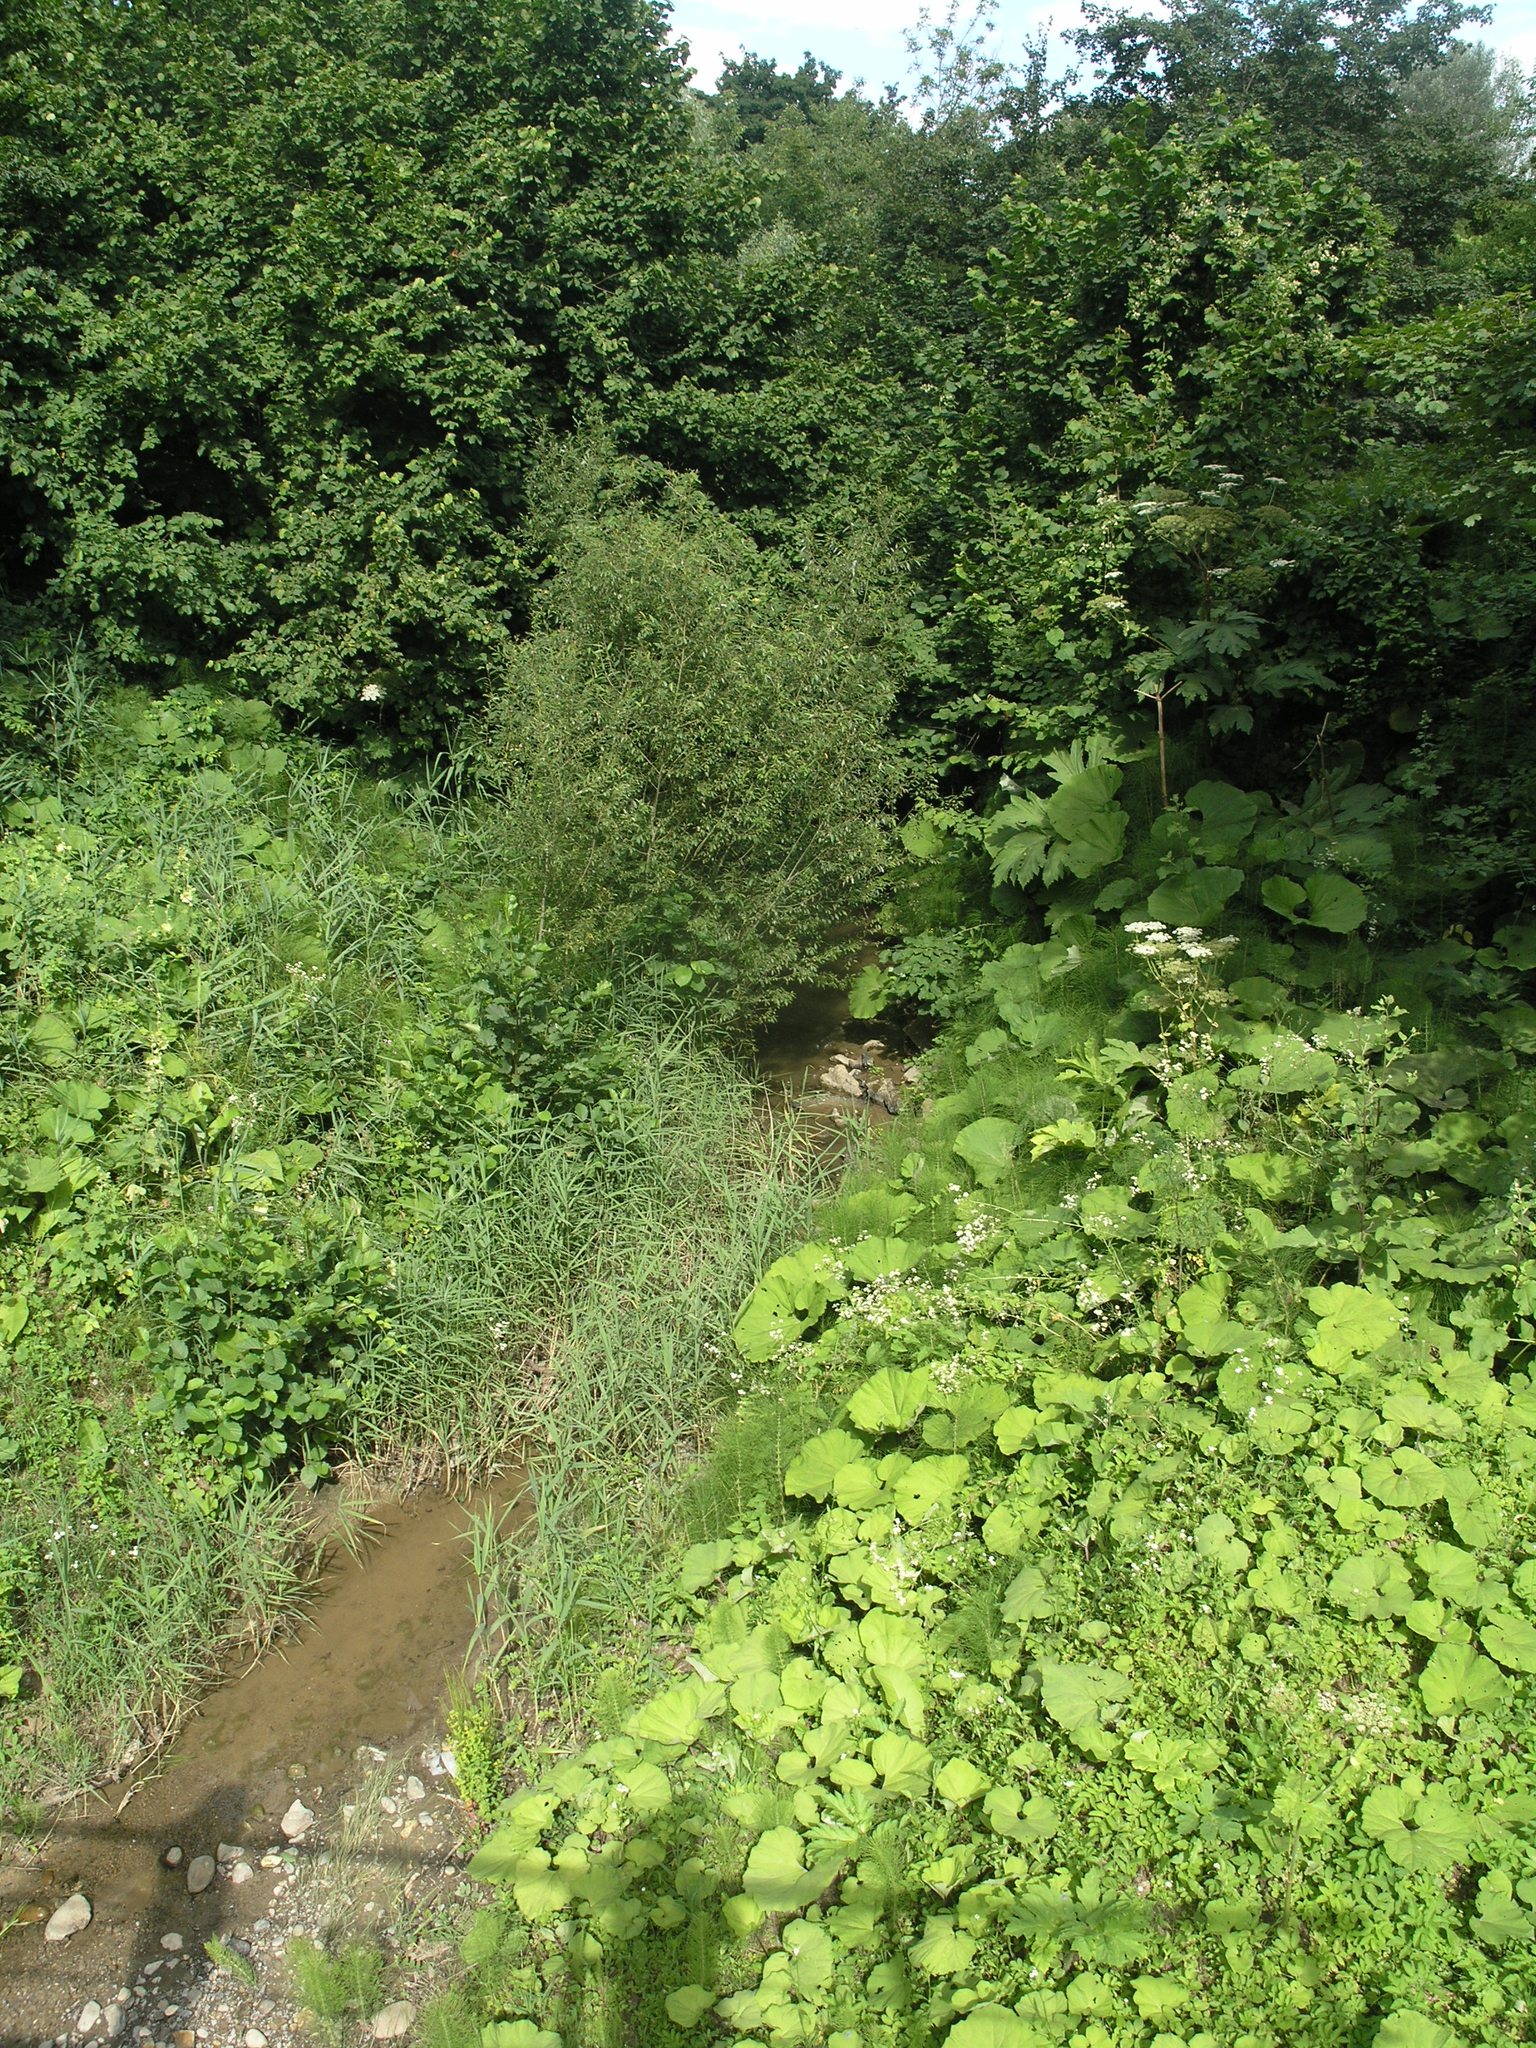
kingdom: Plantae
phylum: Tracheophyta
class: Magnoliopsida
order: Asterales
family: Asteraceae
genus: Petasites
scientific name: Petasites albus
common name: White butterbur
